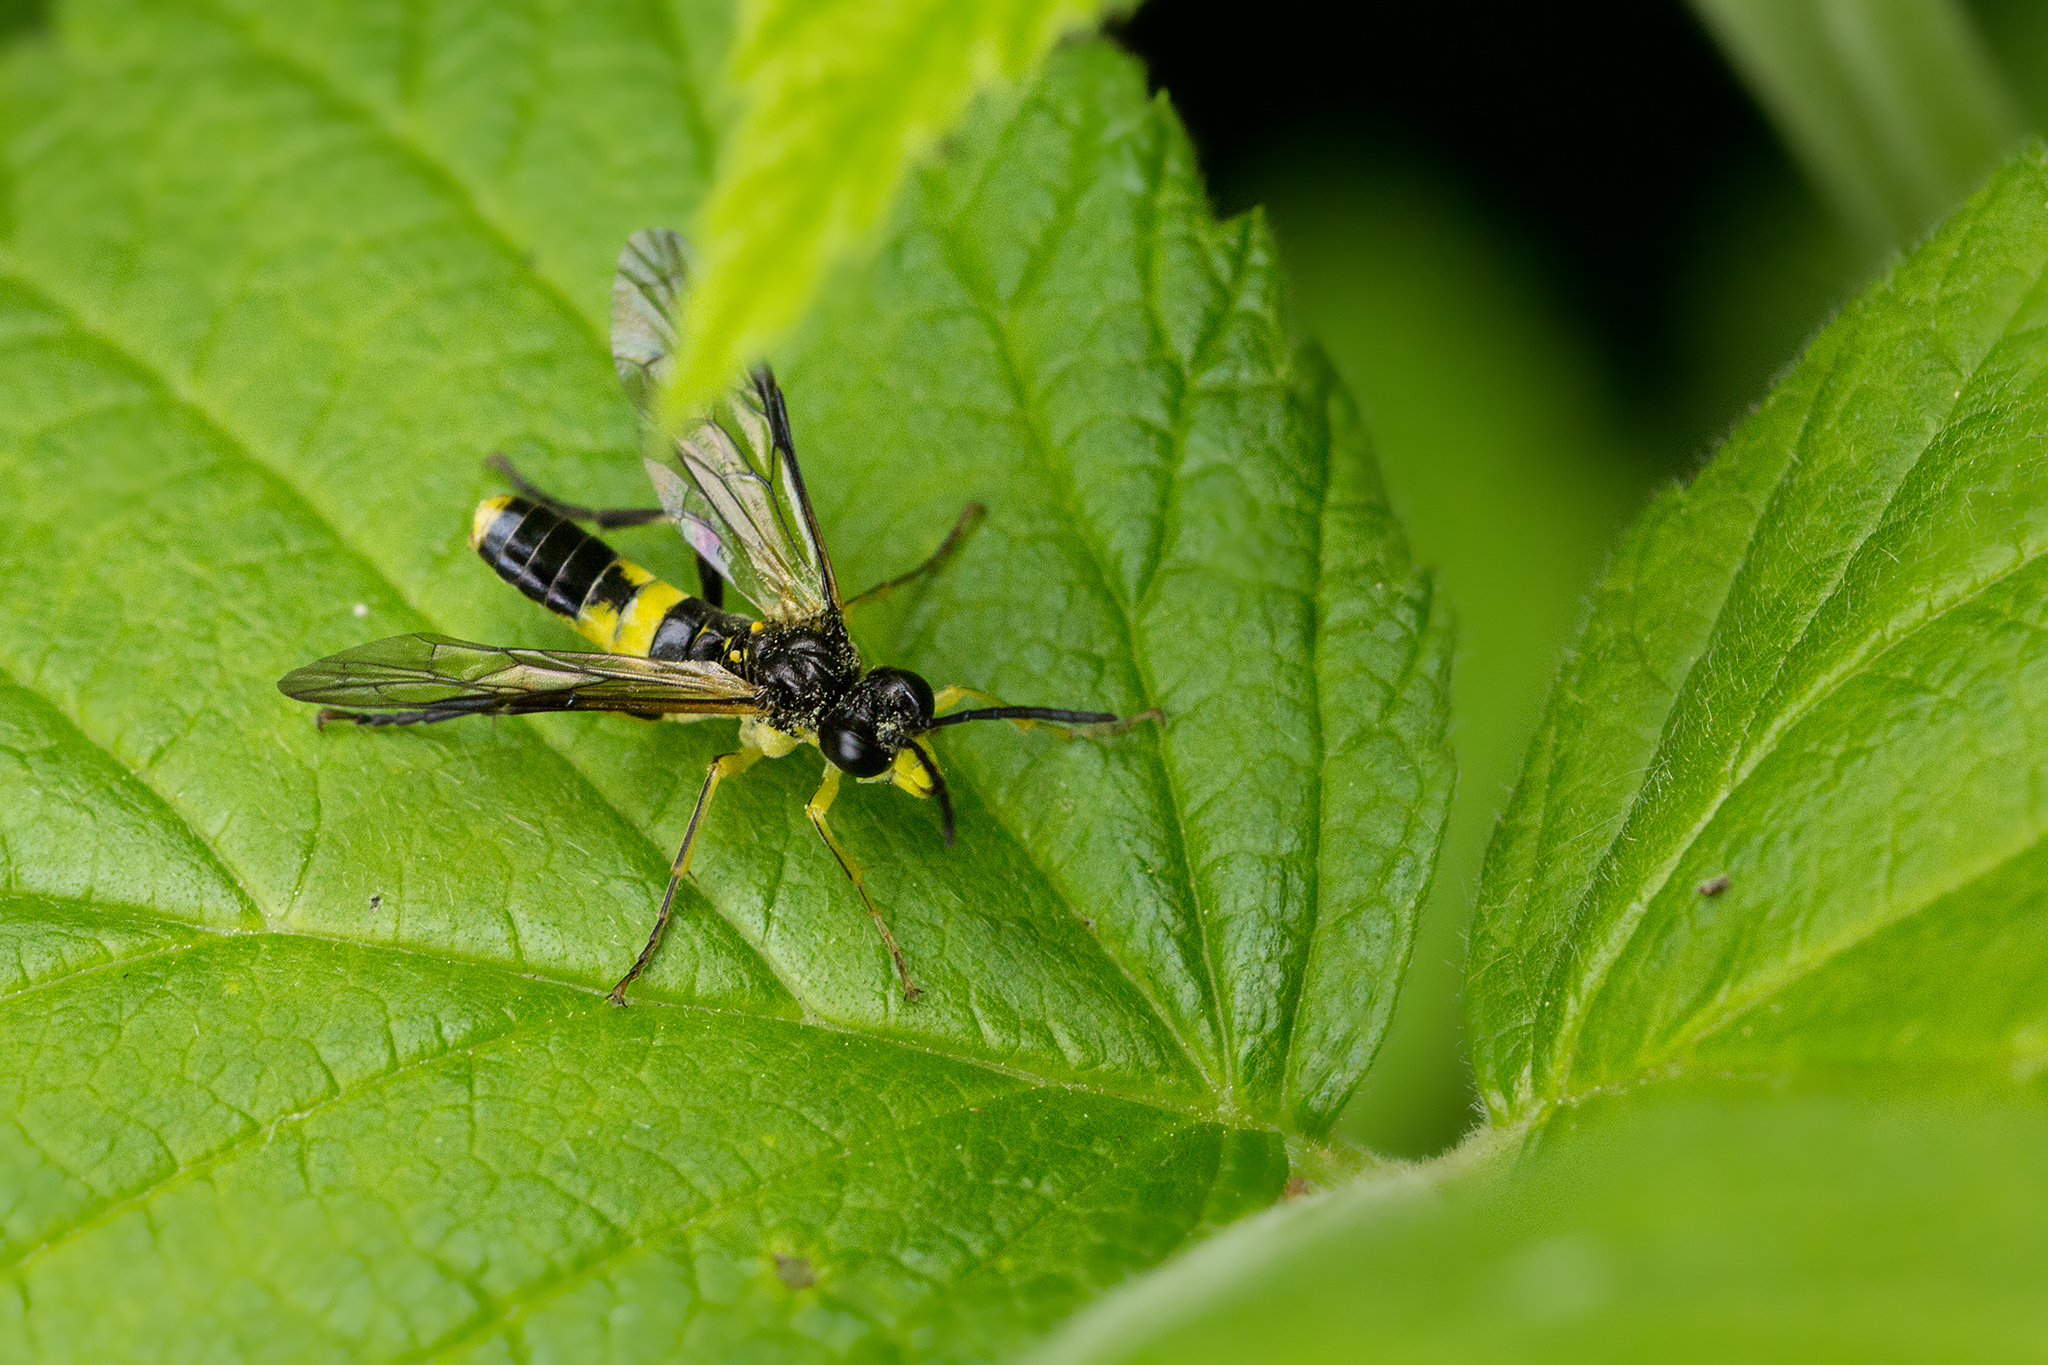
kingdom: Animalia
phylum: Arthropoda
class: Insecta
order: Hymenoptera
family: Tenthredinidae
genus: Tenthredo
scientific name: Tenthredo temula
